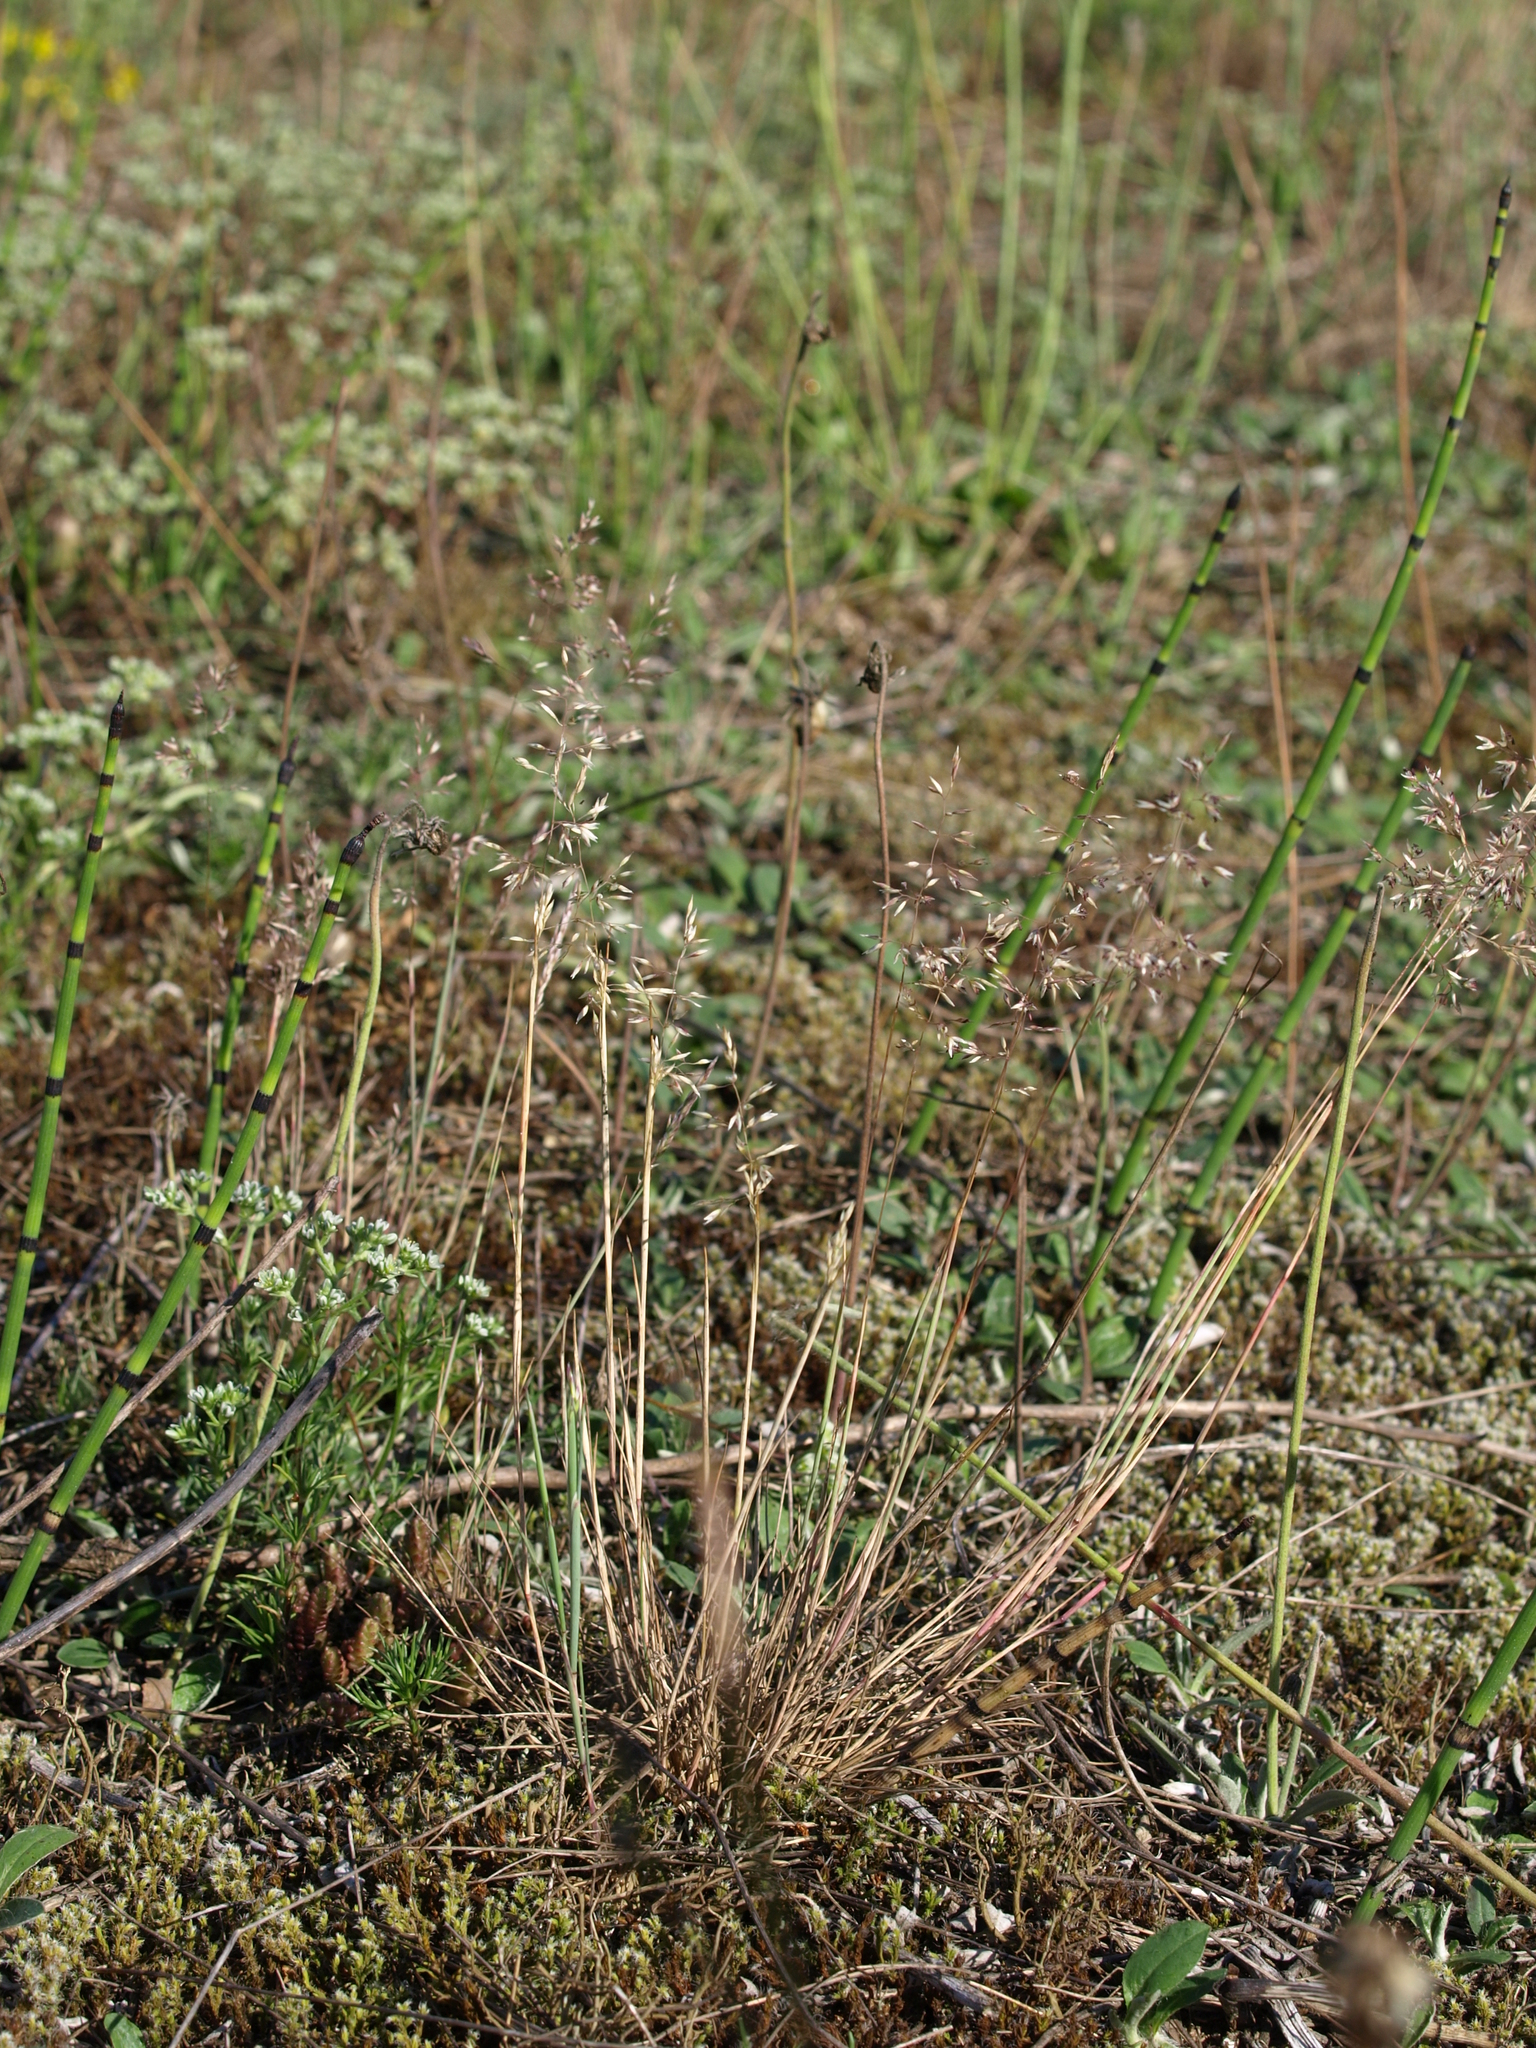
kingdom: Plantae
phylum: Tracheophyta
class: Liliopsida
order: Poales
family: Poaceae
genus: Corynephorus
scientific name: Corynephorus canescens
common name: Grey hair-grass
